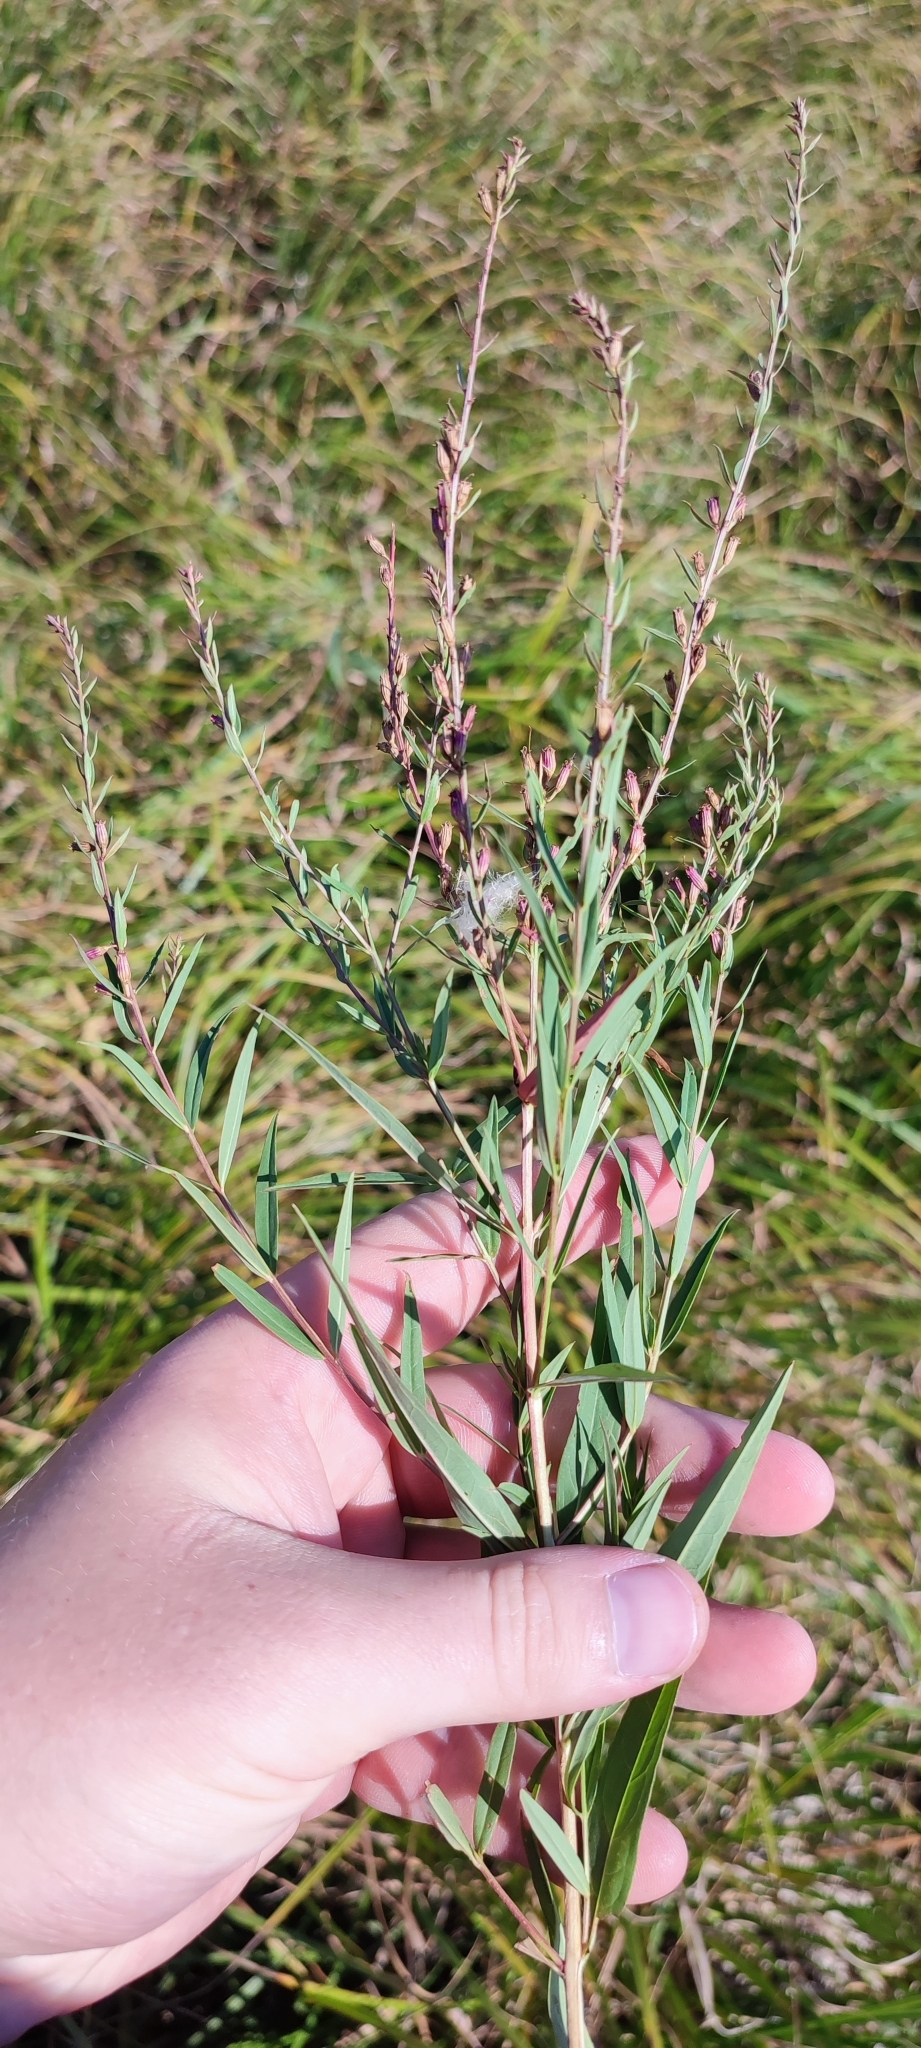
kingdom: Plantae
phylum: Tracheophyta
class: Magnoliopsida
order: Myrtales
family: Lythraceae
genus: Lythrum
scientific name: Lythrum virgatum
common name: European wand loosestrife
